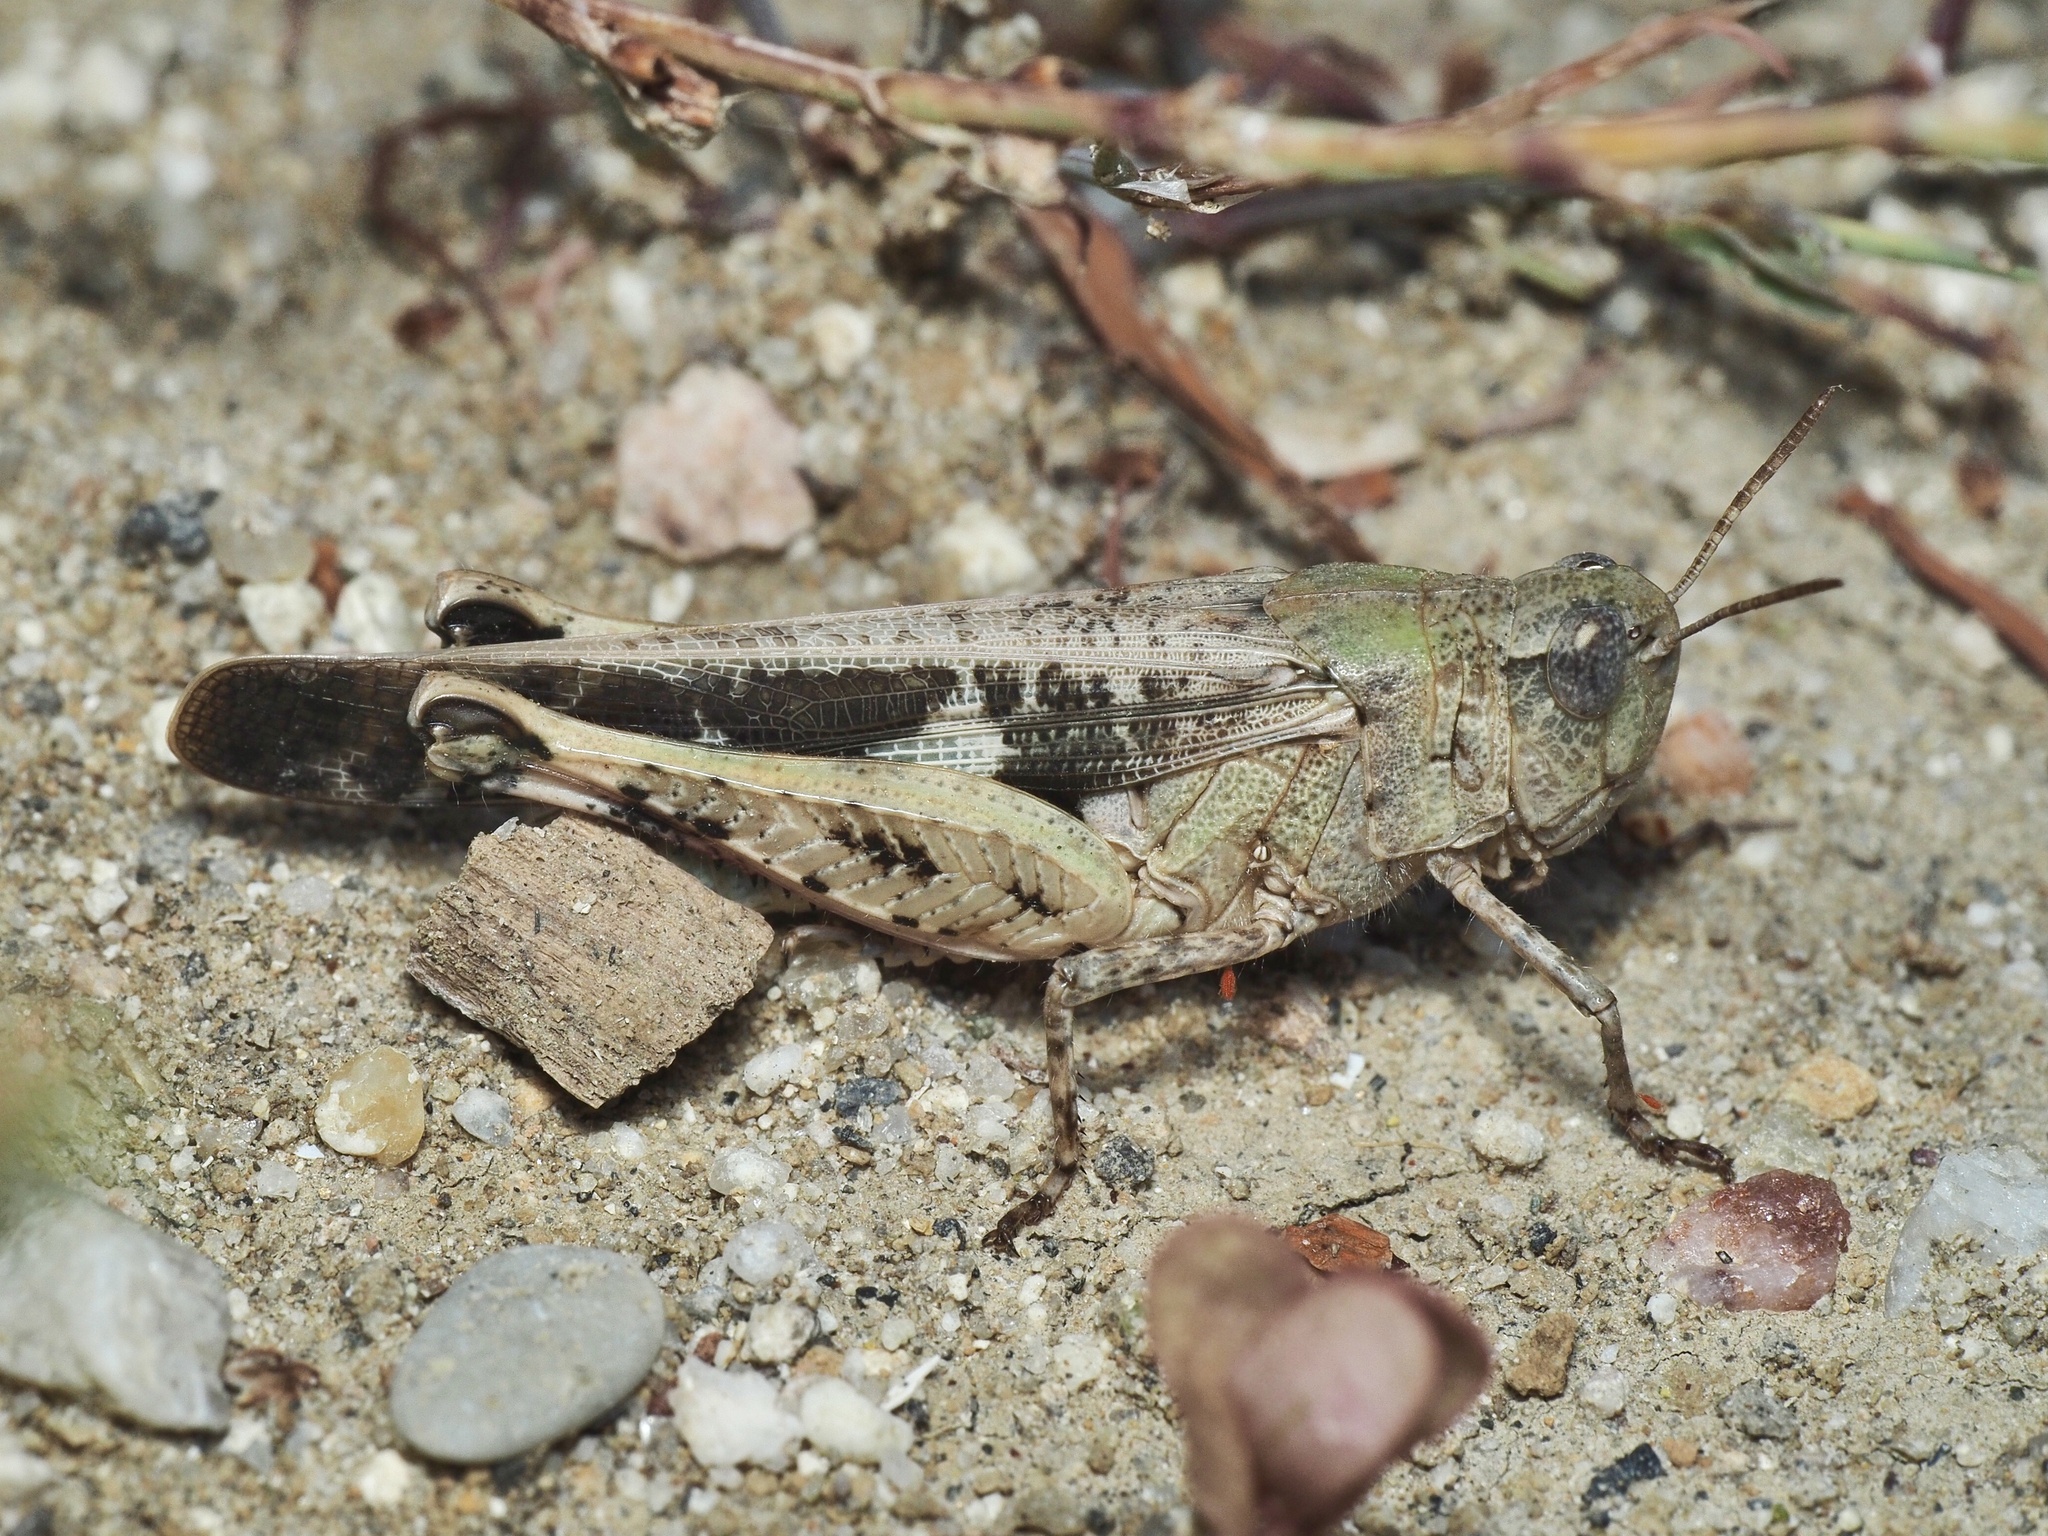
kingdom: Animalia
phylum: Arthropoda
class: Insecta
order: Orthoptera
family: Acrididae
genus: Aiolopus
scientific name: Aiolopus strepens
